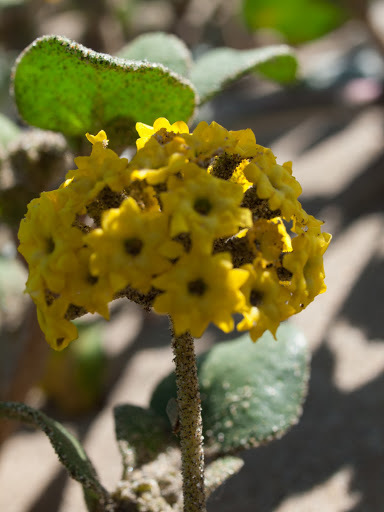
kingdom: Plantae
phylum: Tracheophyta
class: Magnoliopsida
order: Caryophyllales
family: Nyctaginaceae
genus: Abronia
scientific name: Abronia latifolia
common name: Yellow sand-verbena
